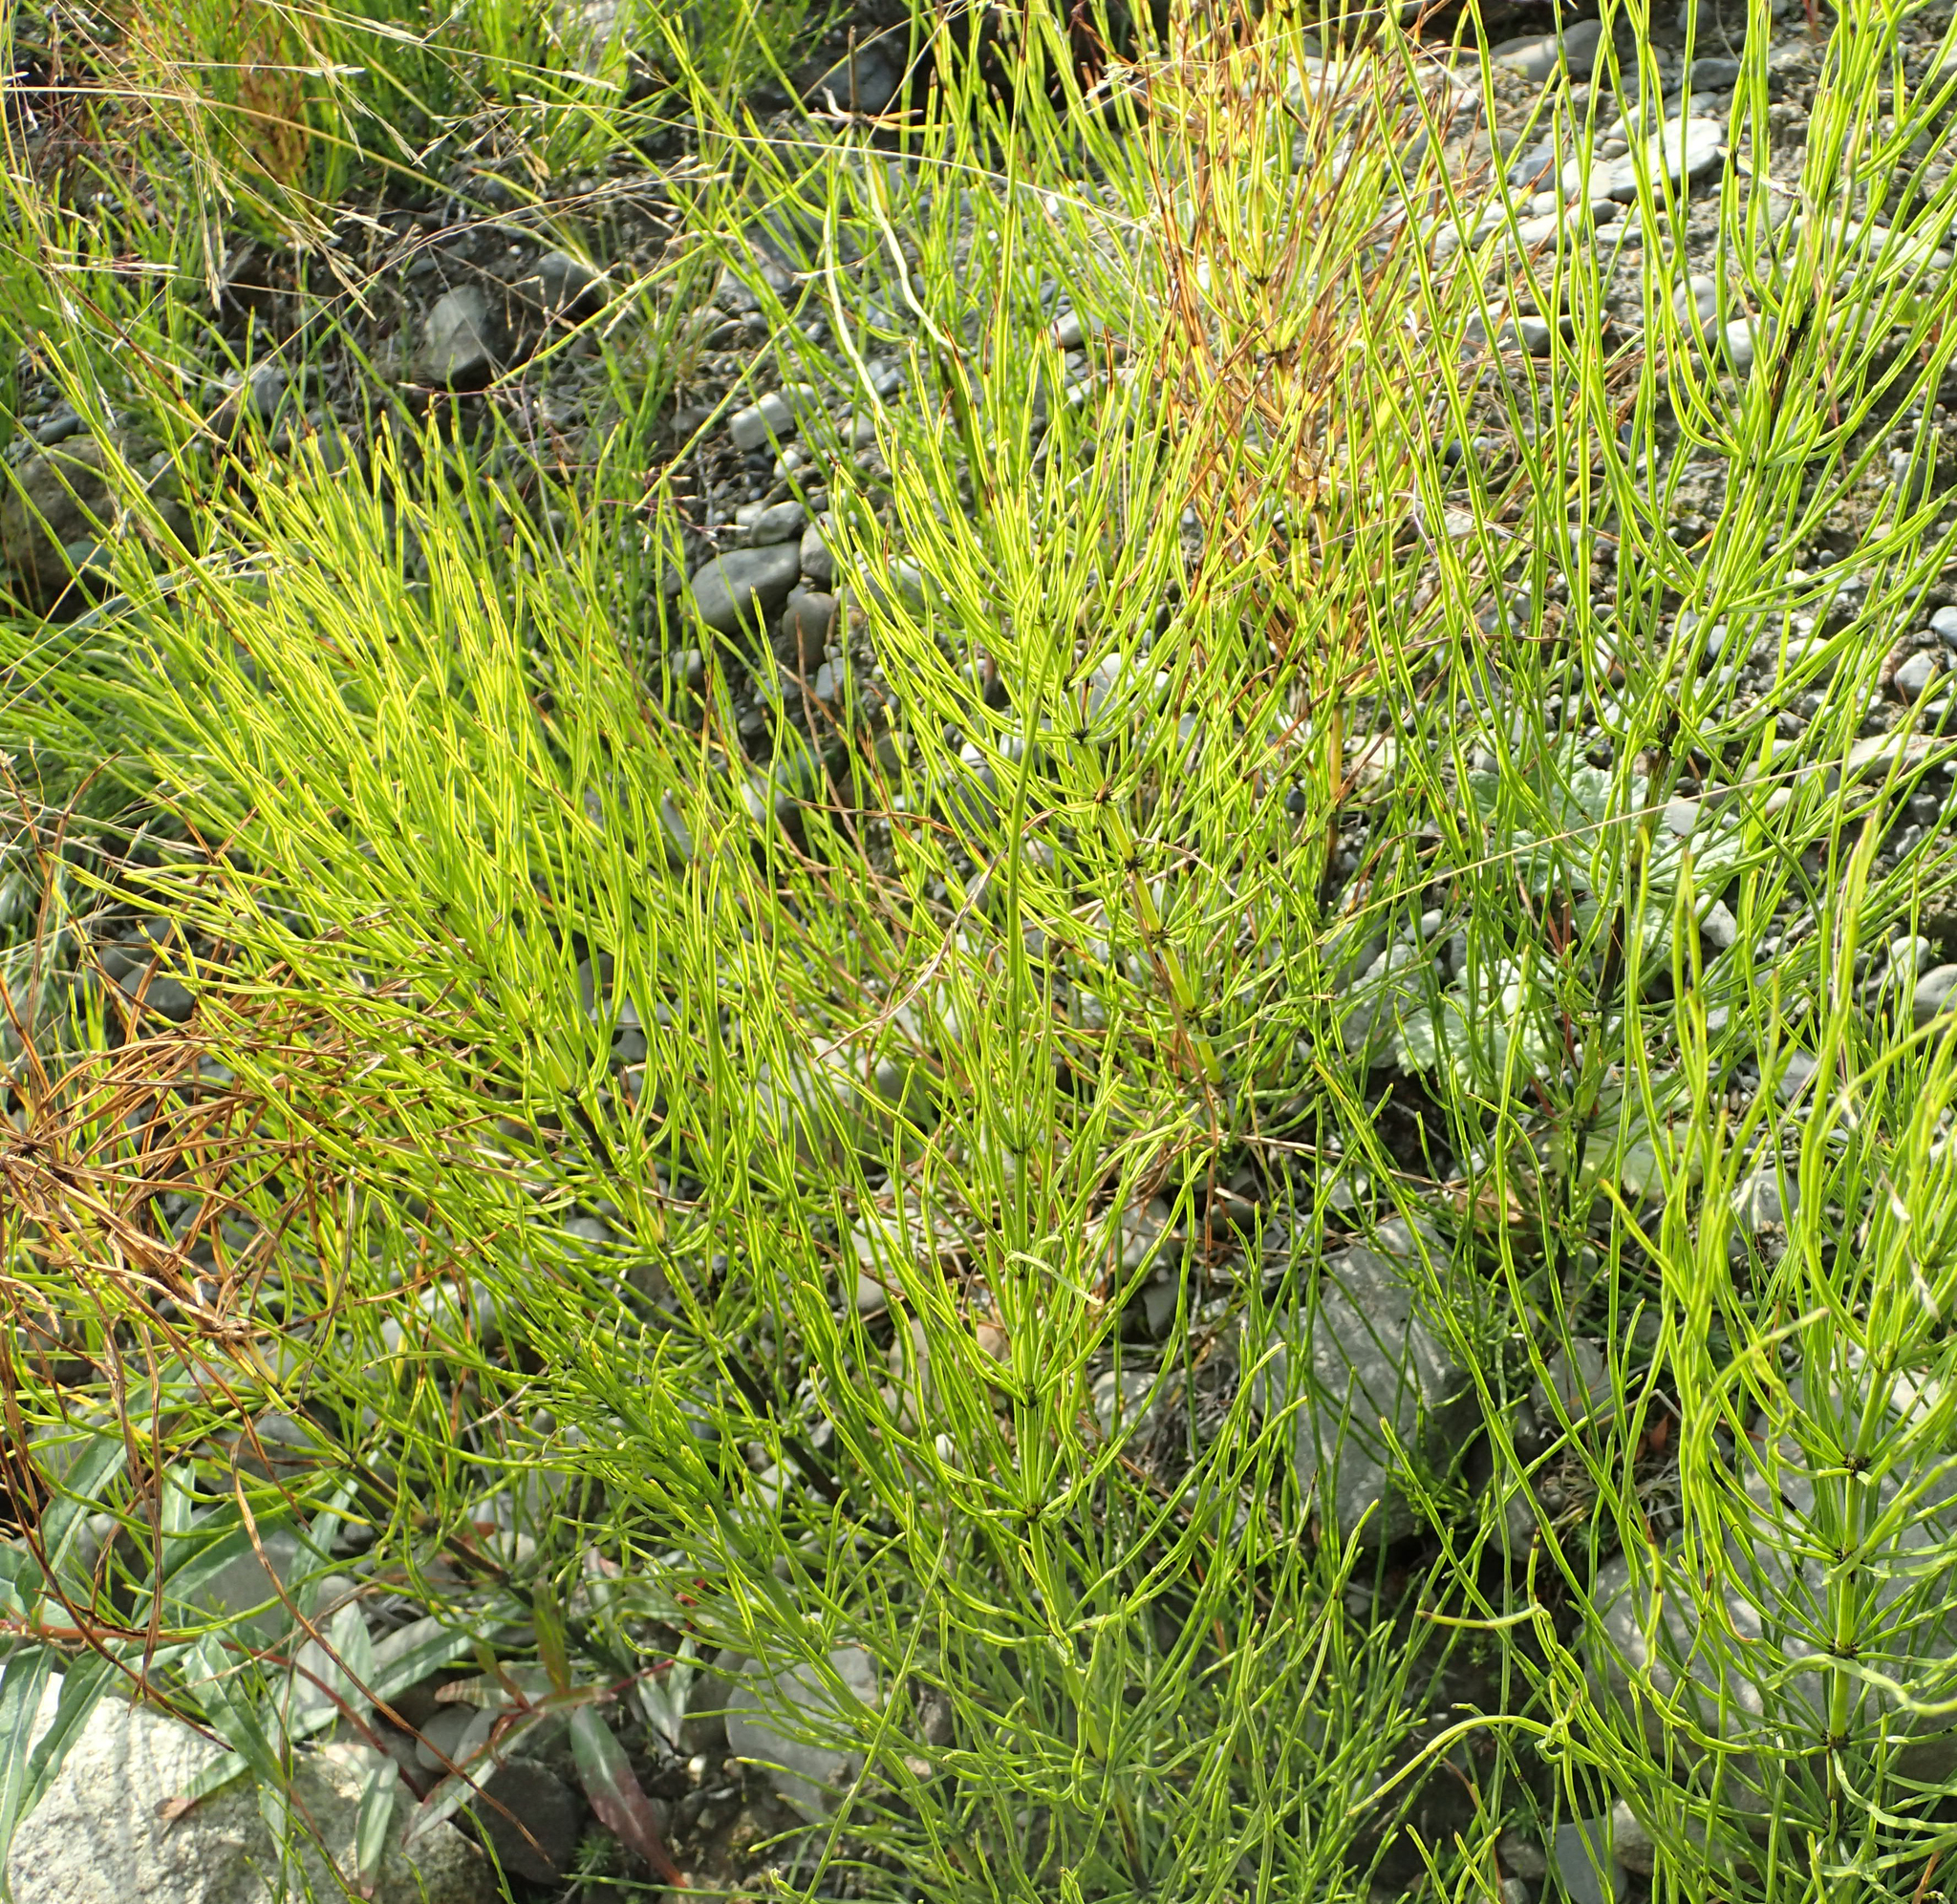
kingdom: Plantae
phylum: Tracheophyta
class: Polypodiopsida
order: Equisetales
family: Equisetaceae
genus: Equisetum
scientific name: Equisetum arvense
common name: Field horsetail
